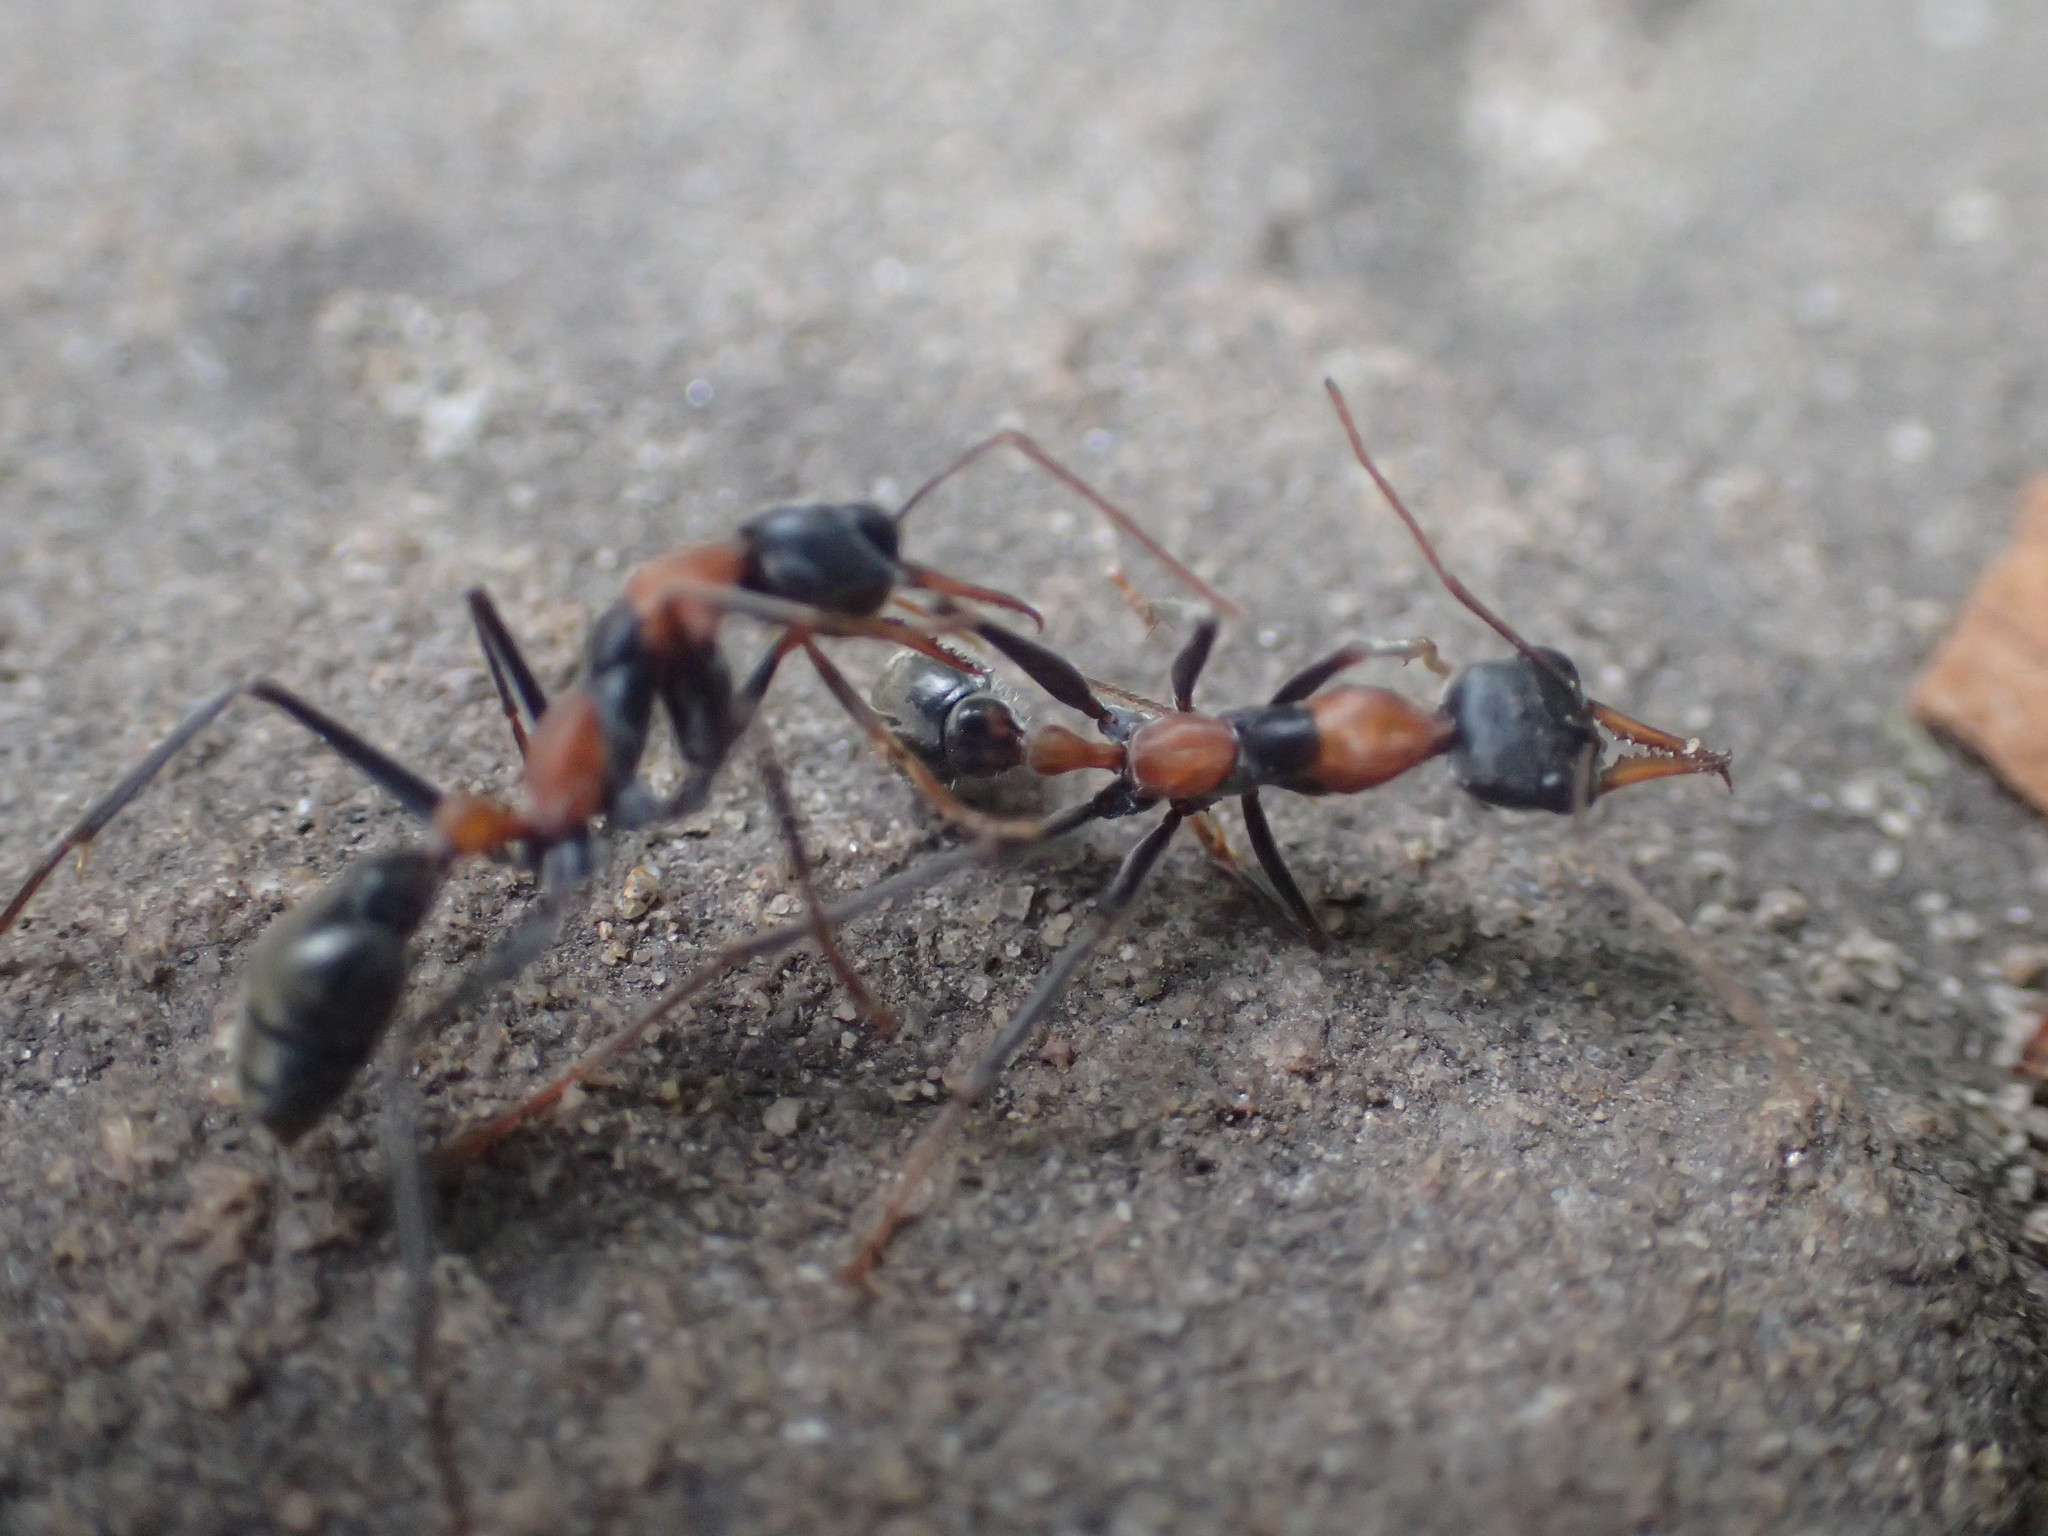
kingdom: Animalia
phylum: Arthropoda
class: Insecta
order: Hymenoptera
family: Formicidae
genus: Myrmecia
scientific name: Myrmecia nigrocincta
